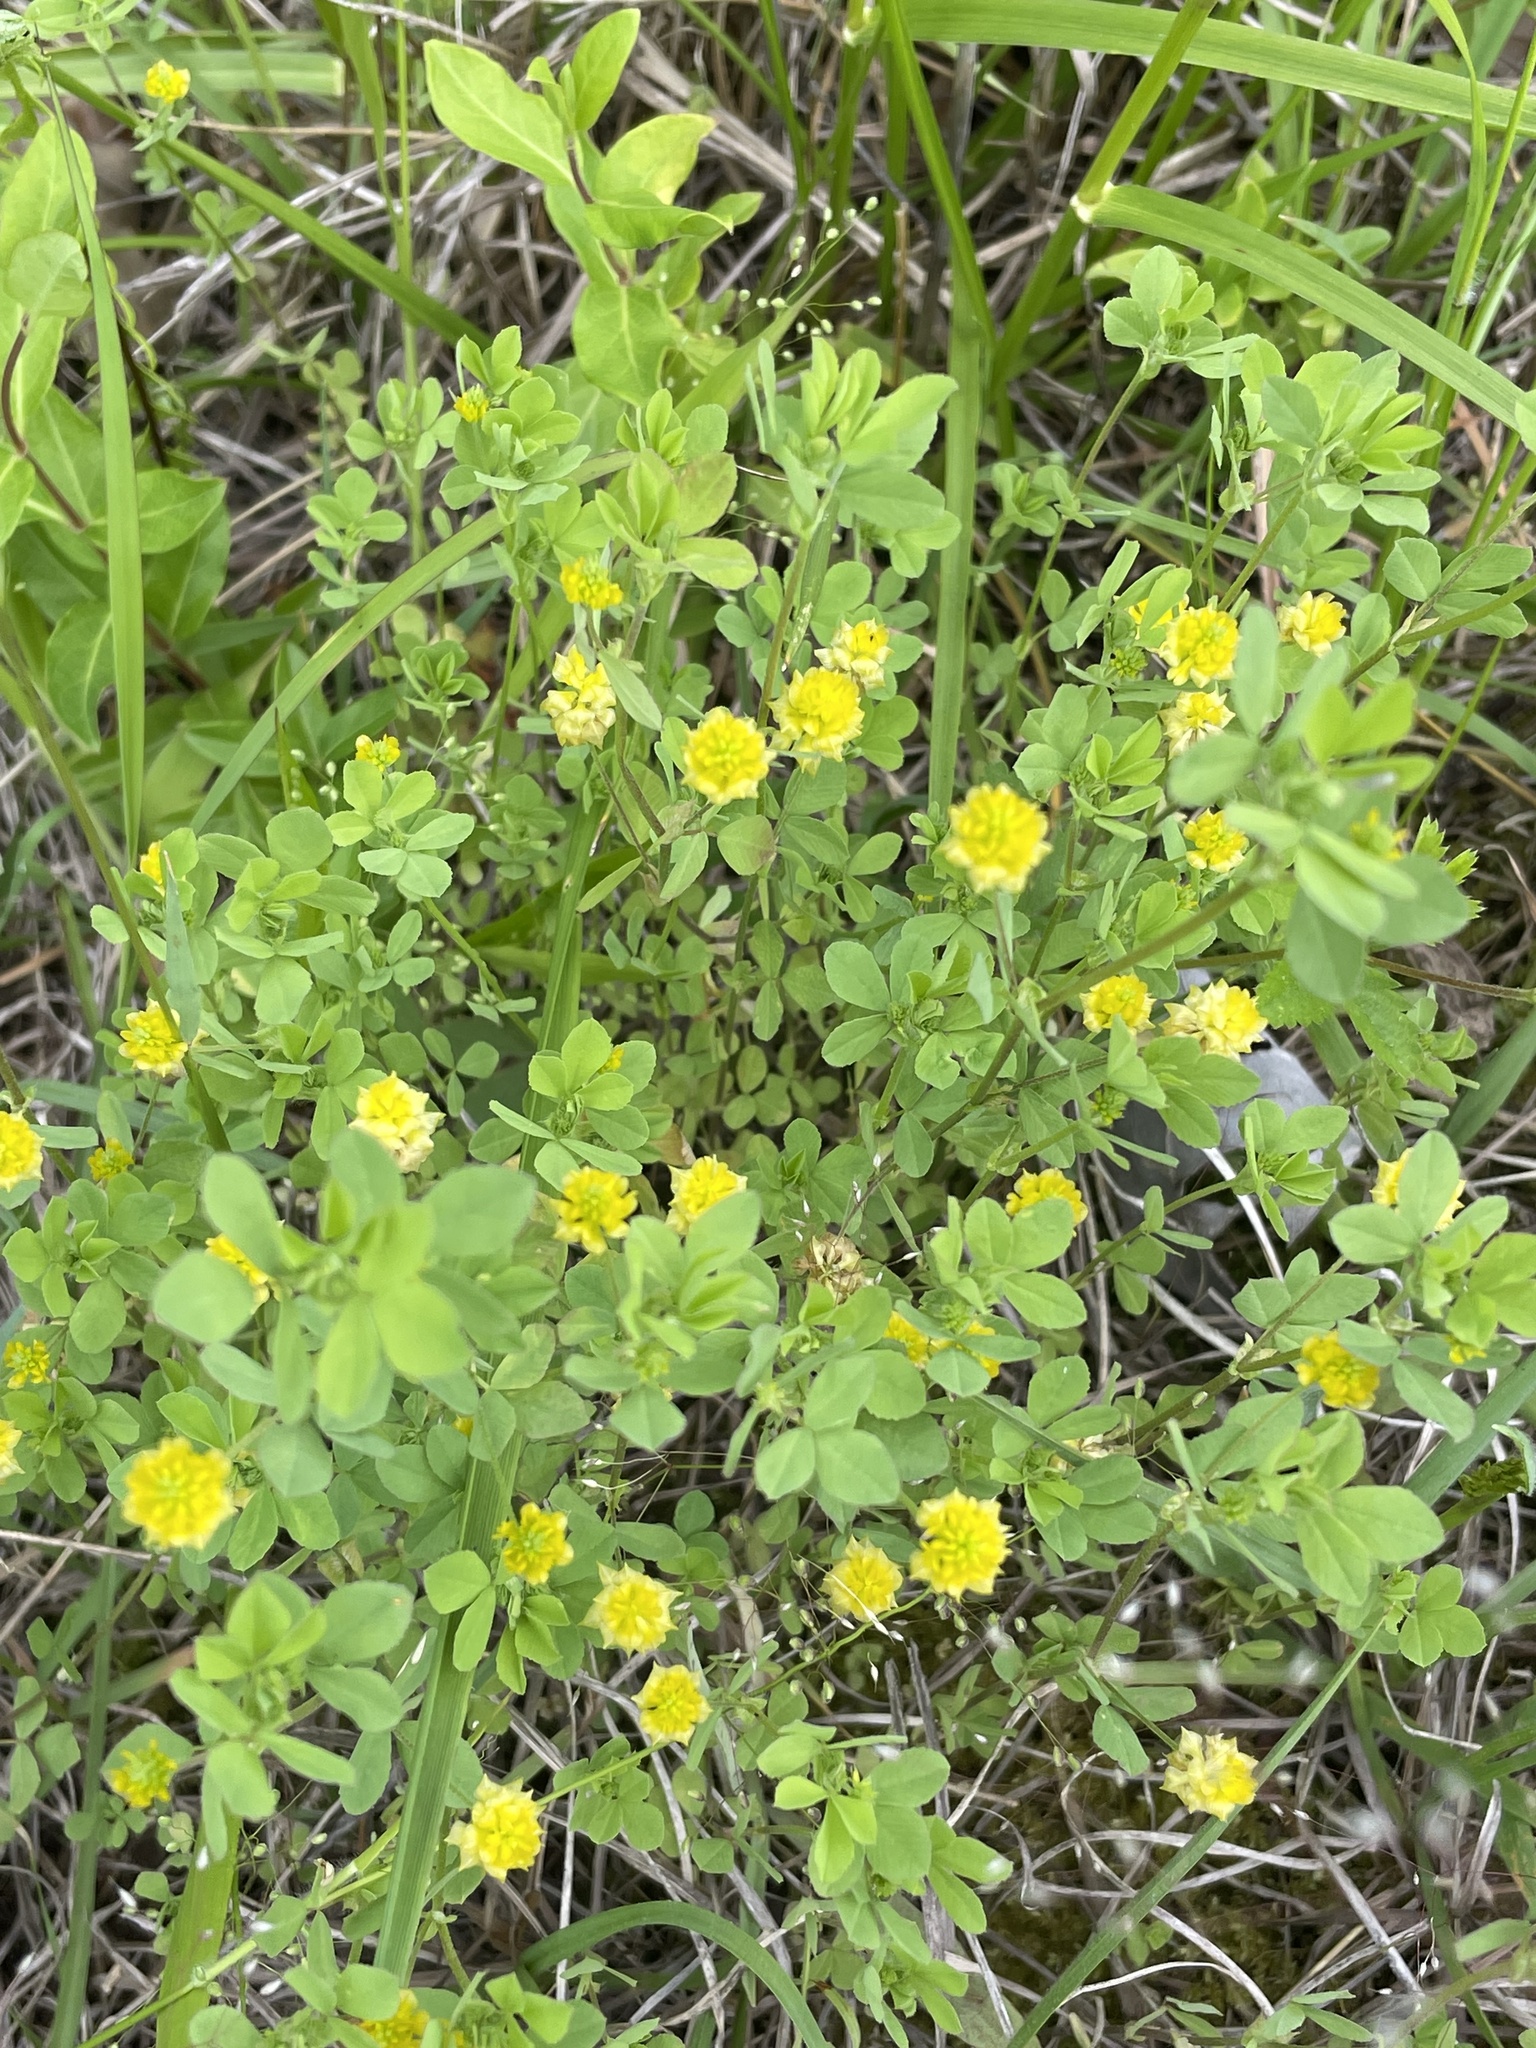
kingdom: Plantae
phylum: Tracheophyta
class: Magnoliopsida
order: Fabales
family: Fabaceae
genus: Trifolium
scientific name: Trifolium campestre
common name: Field clover
